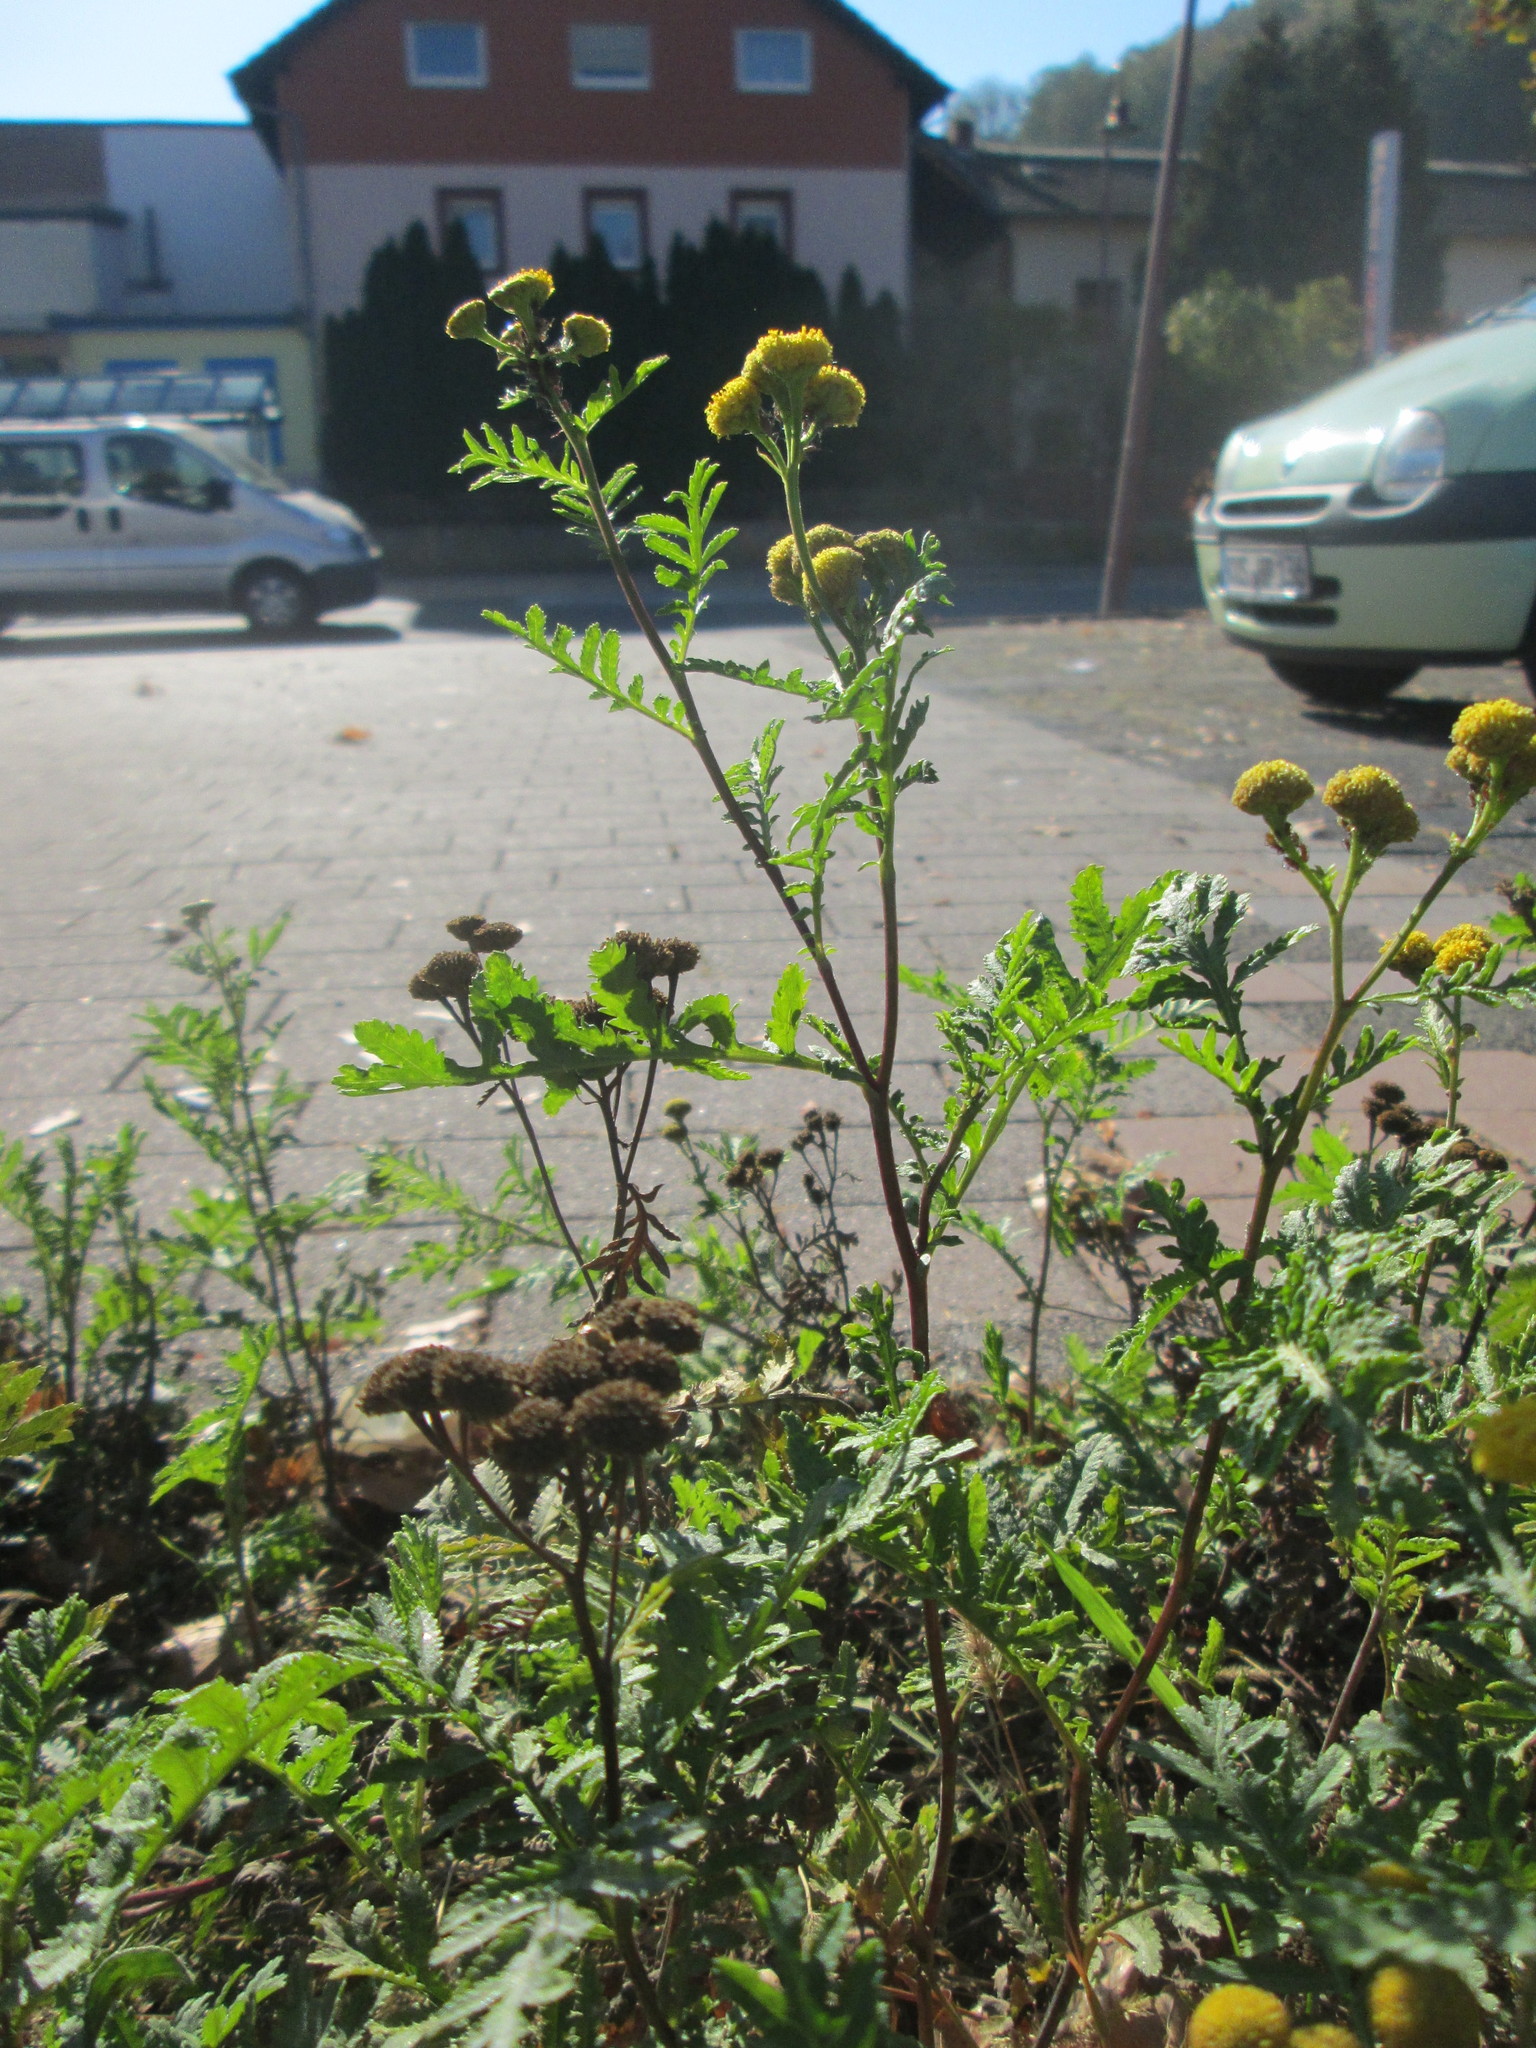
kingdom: Plantae
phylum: Tracheophyta
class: Magnoliopsida
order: Asterales
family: Asteraceae
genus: Tanacetum
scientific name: Tanacetum vulgare
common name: Common tansy
